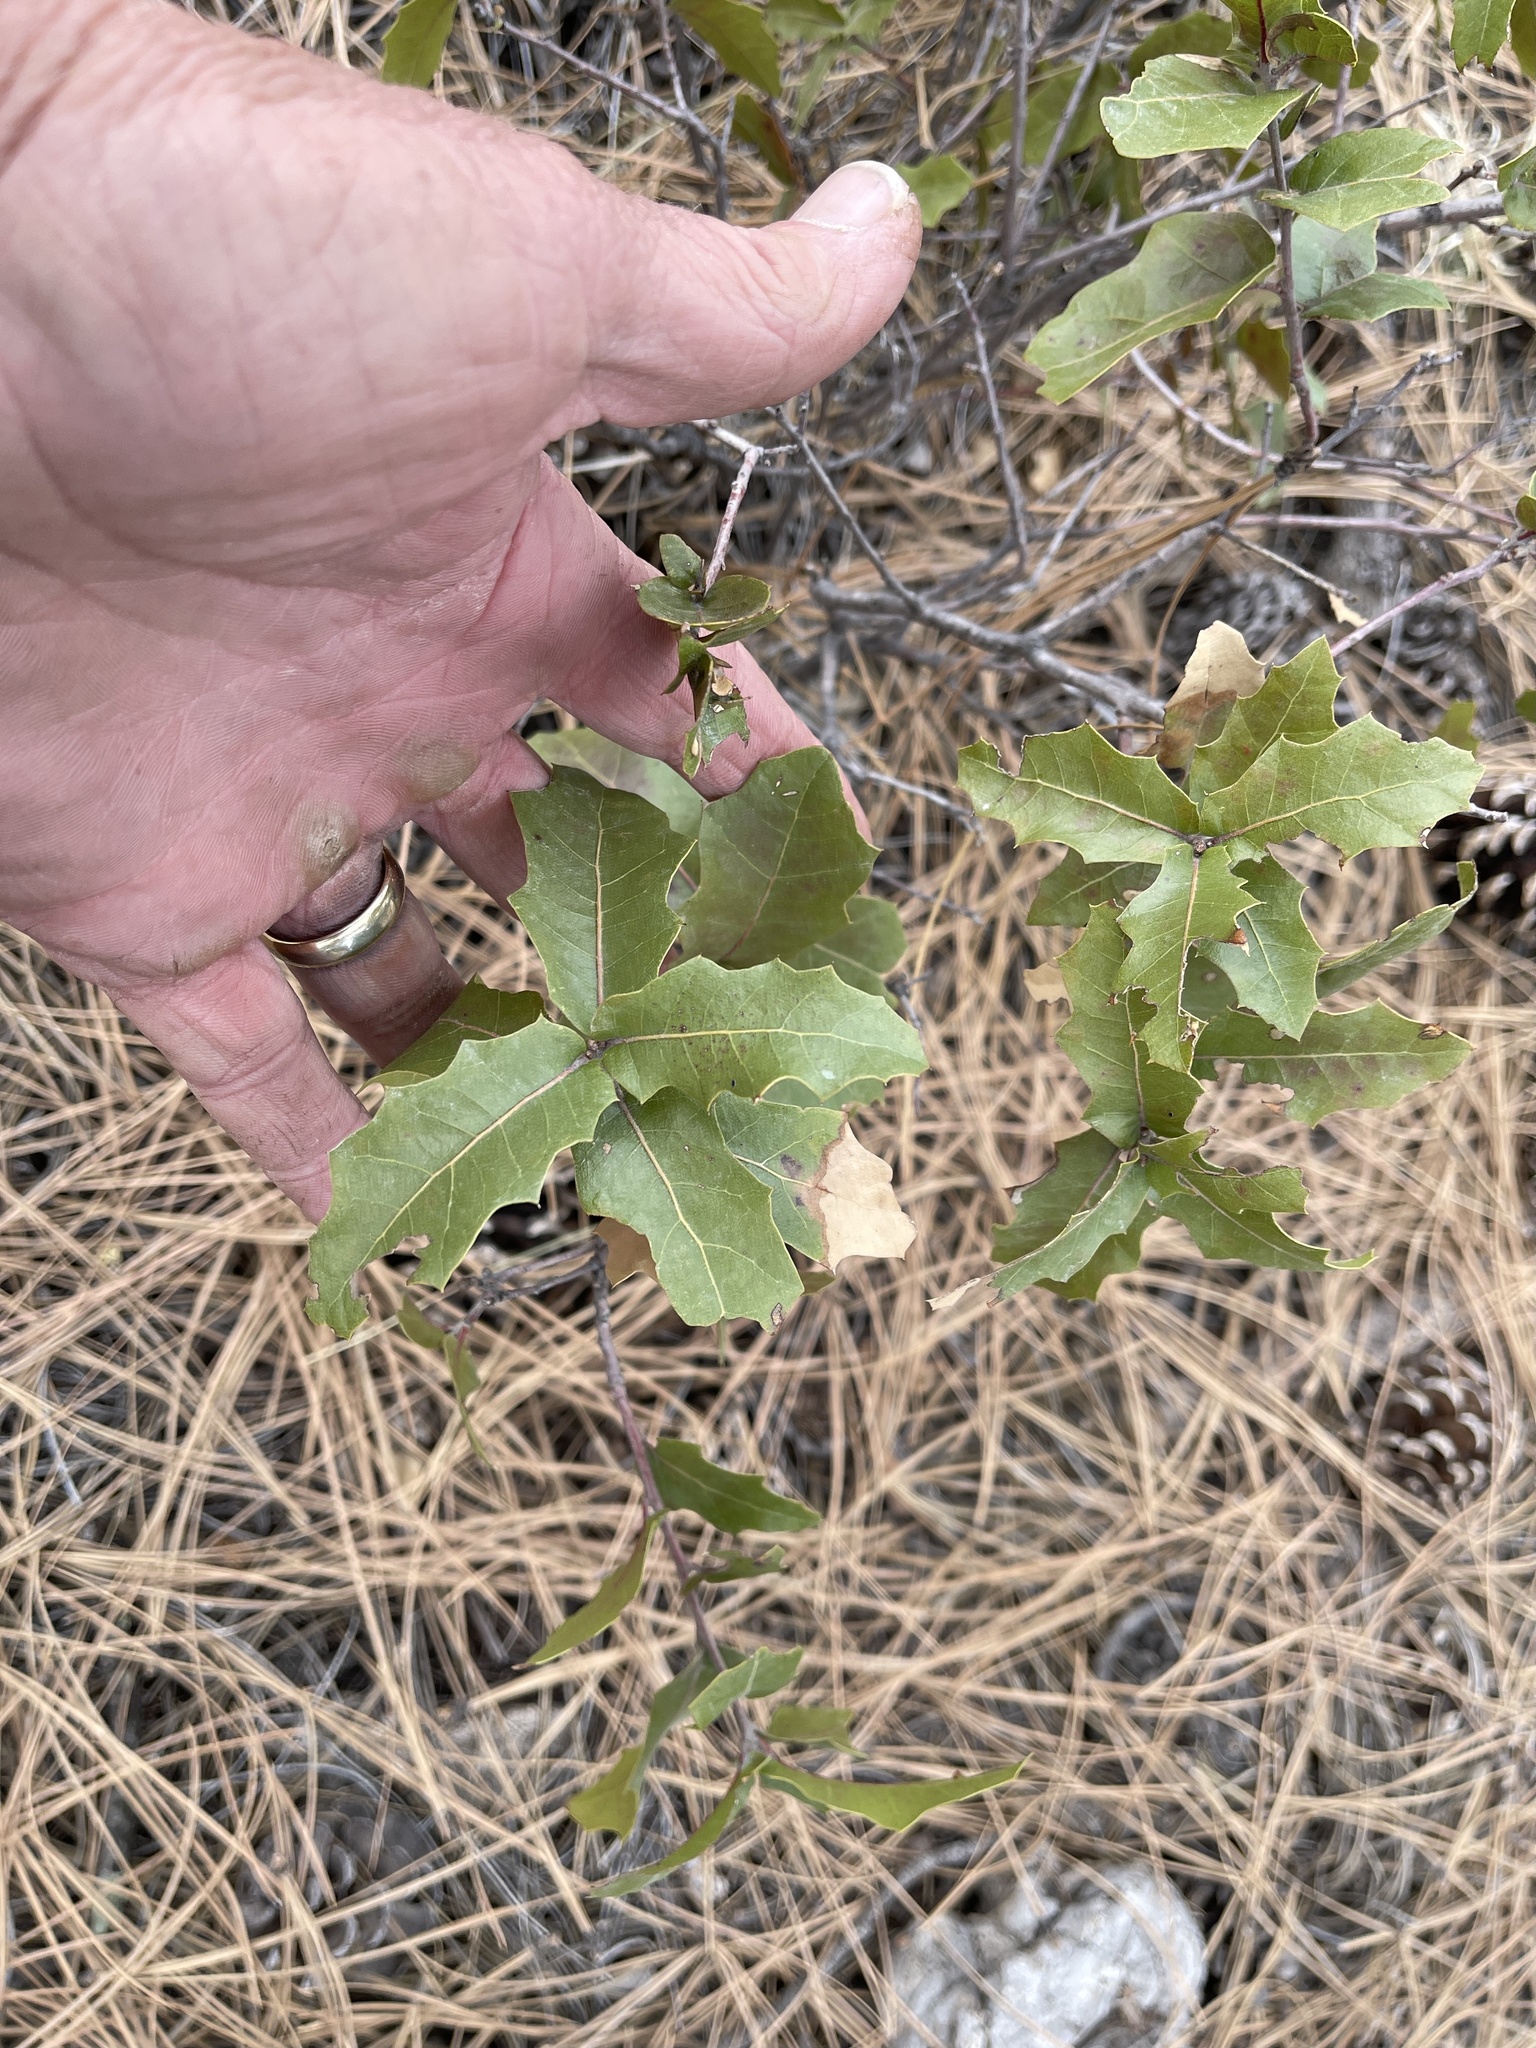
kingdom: Plantae
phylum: Tracheophyta
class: Magnoliopsida
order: Fagales
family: Fagaceae
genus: Quercus
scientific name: Quercus emoryi
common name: Emory oak
